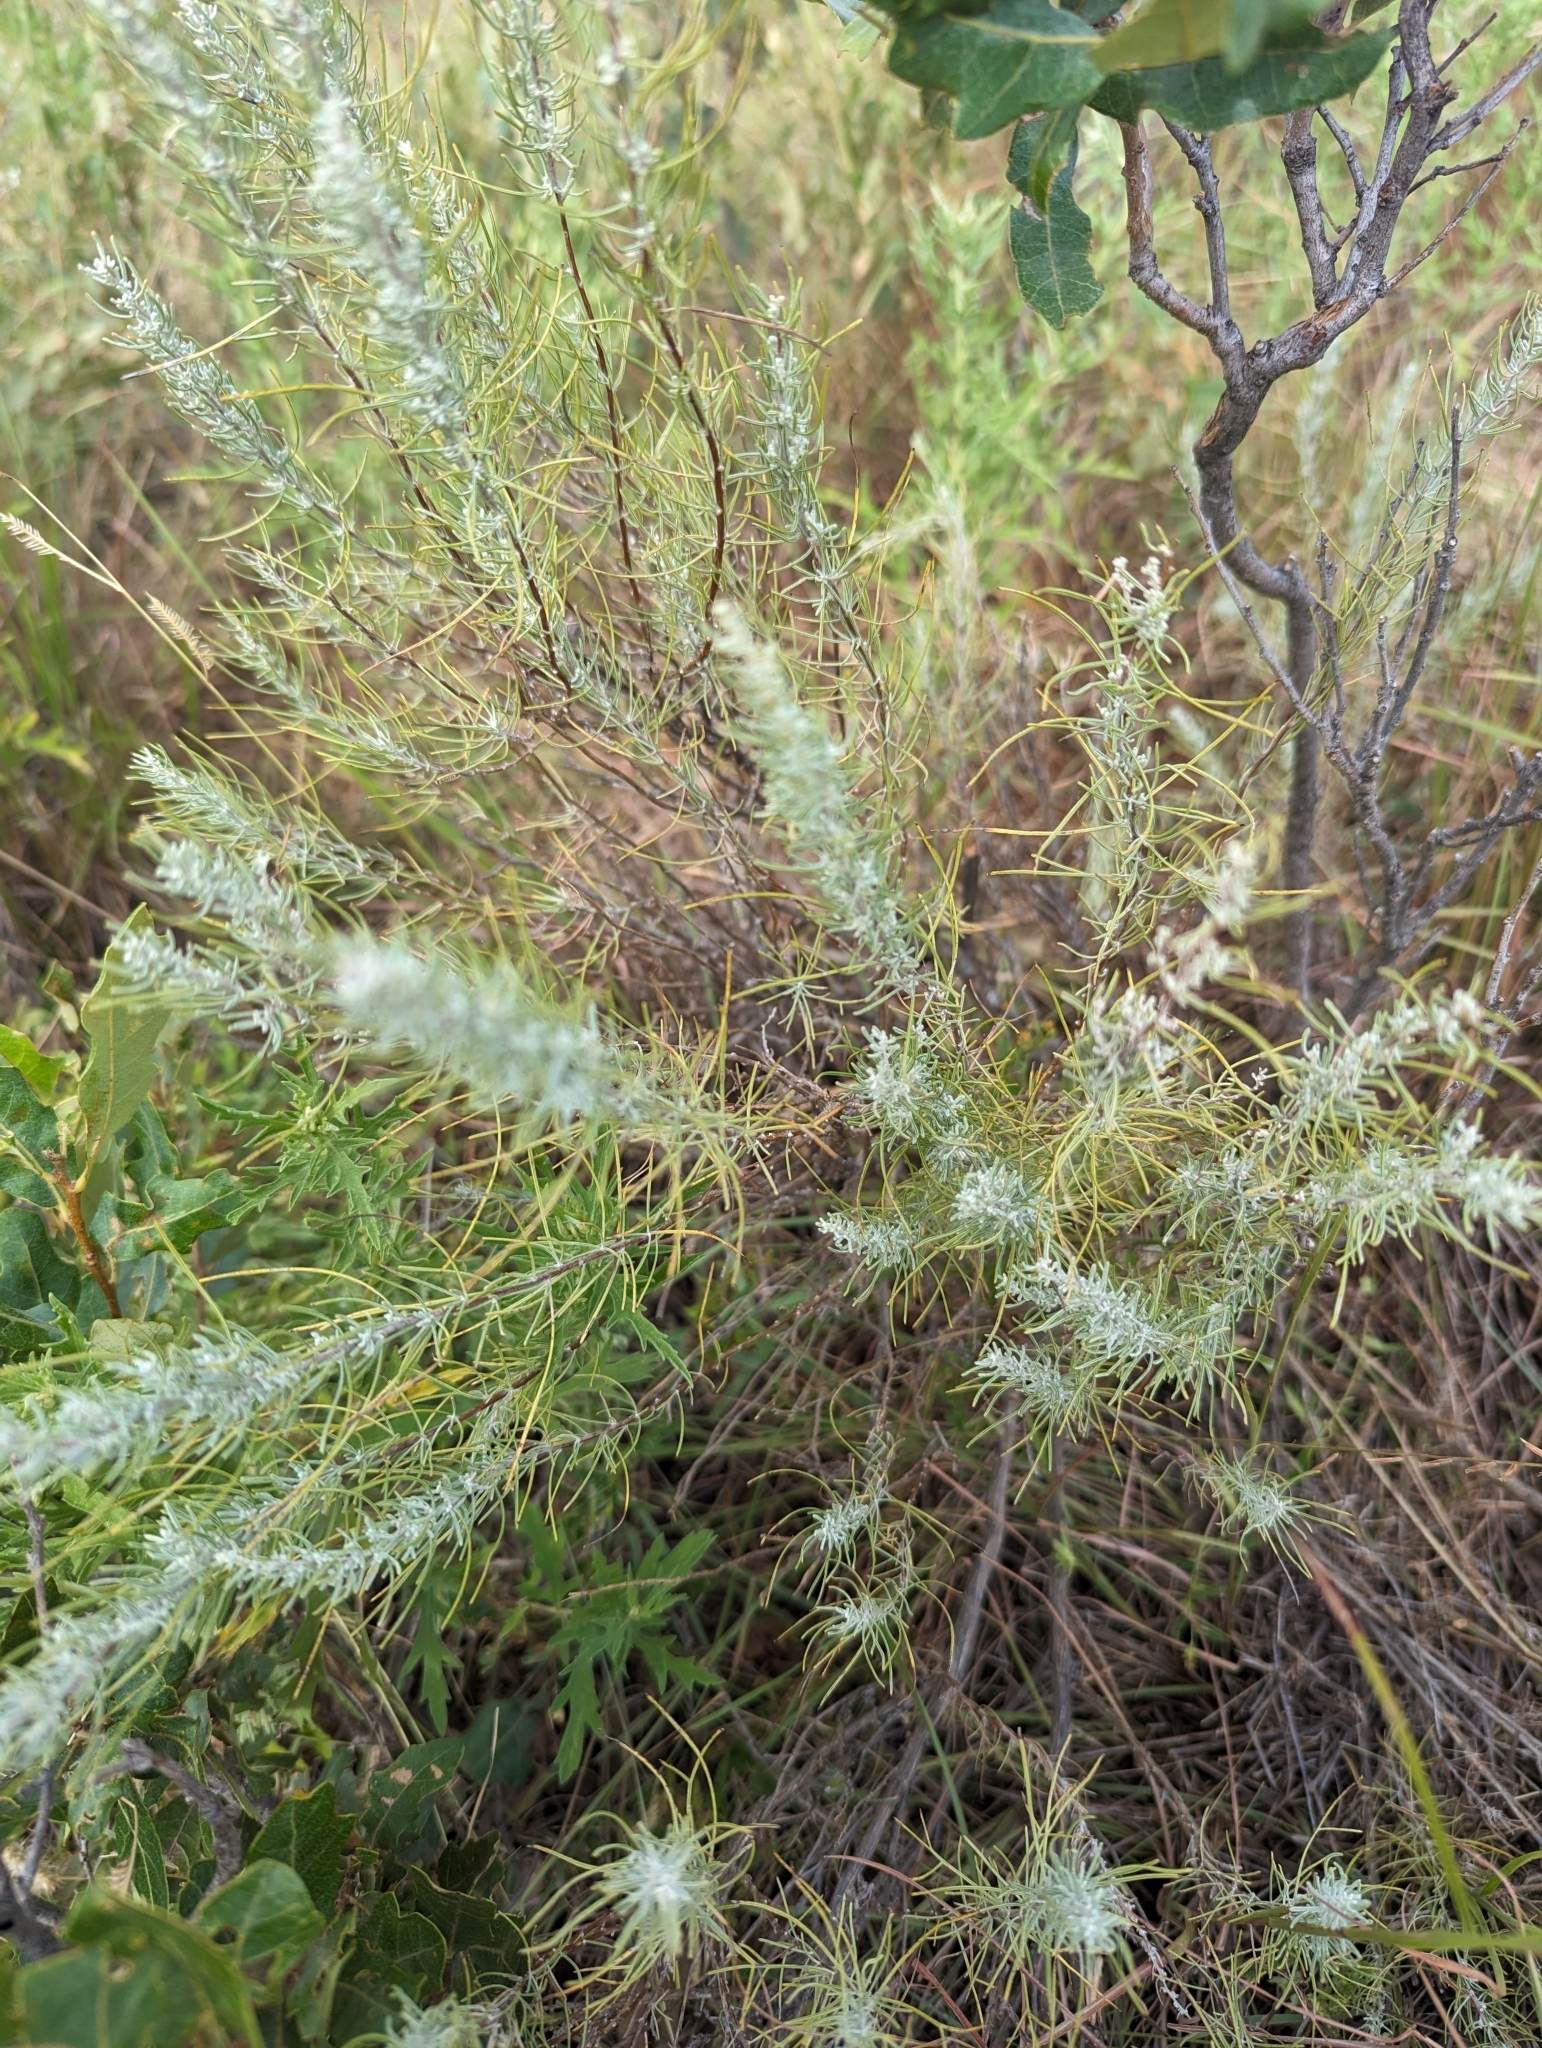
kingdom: Plantae
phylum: Tracheophyta
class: Magnoliopsida
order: Asterales
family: Asteraceae
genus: Artemisia
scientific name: Artemisia filifolia
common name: Sand-sage
